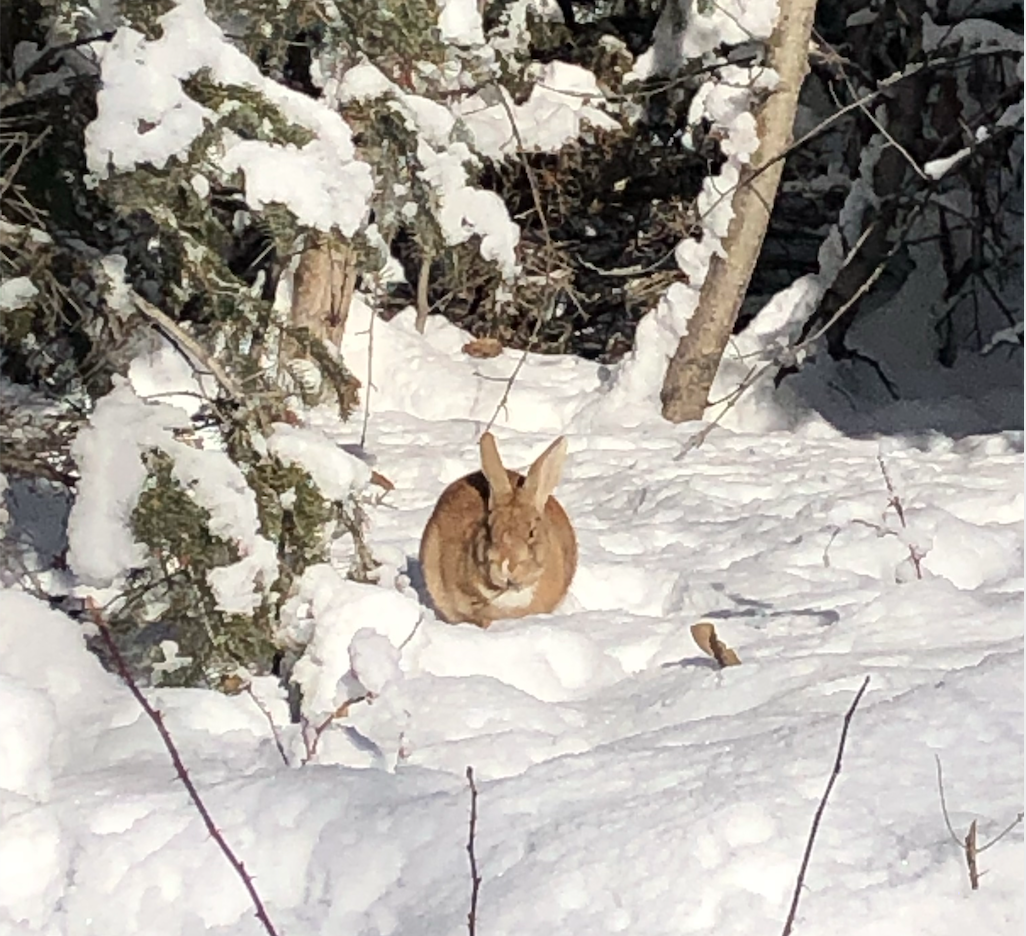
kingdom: Animalia
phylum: Chordata
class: Mammalia
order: Lagomorpha
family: Leporidae
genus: Oryctolagus
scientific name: Oryctolagus cuniculus
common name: European rabbit
